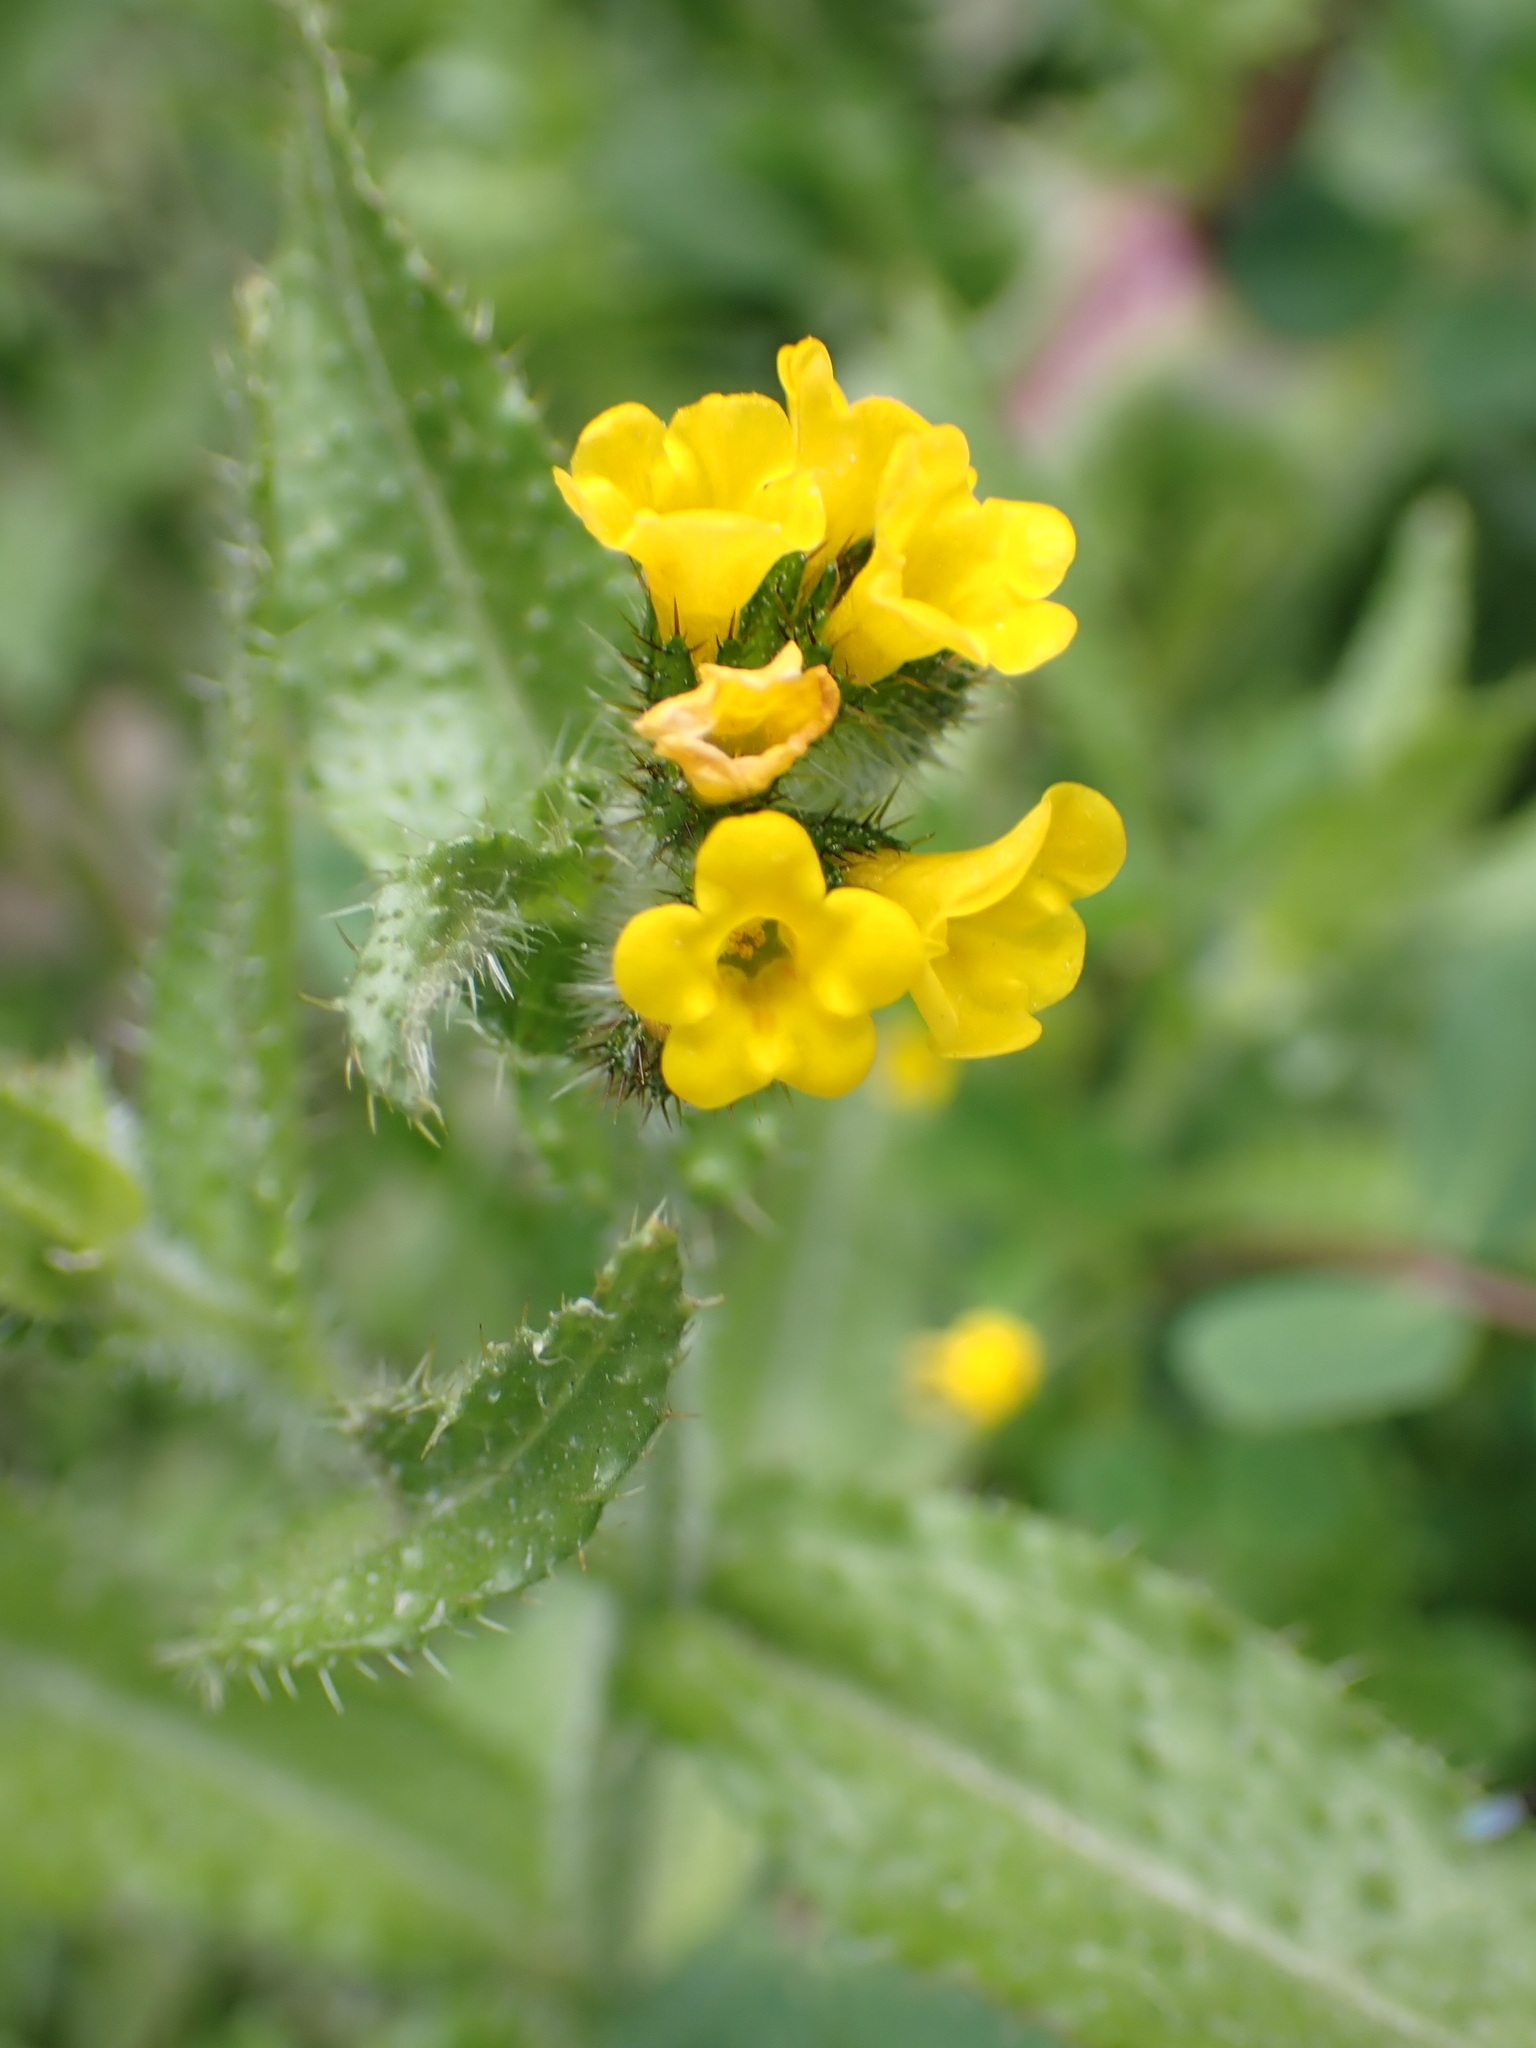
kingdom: Plantae
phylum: Tracheophyta
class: Magnoliopsida
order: Boraginales
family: Boraginaceae
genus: Amsinckia
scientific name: Amsinckia spectabilis
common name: Seaside fiddleneck
